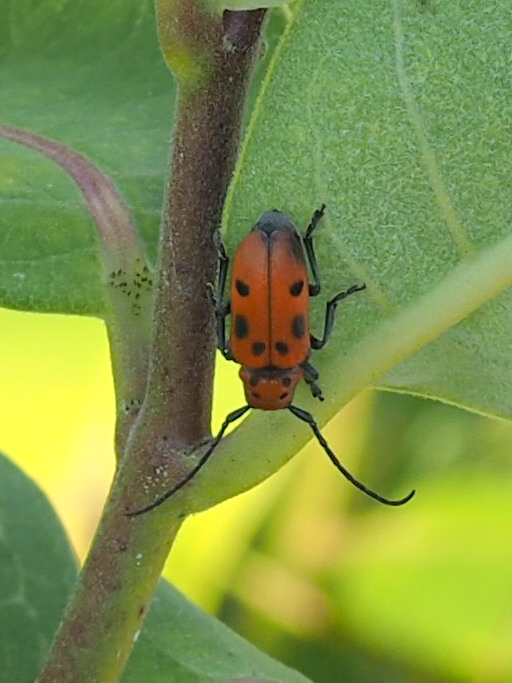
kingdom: Animalia
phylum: Arthropoda
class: Insecta
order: Coleoptera
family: Cerambycidae
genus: Tetraopes
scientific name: Tetraopes tetrophthalmus
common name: Red milkweed beetle
